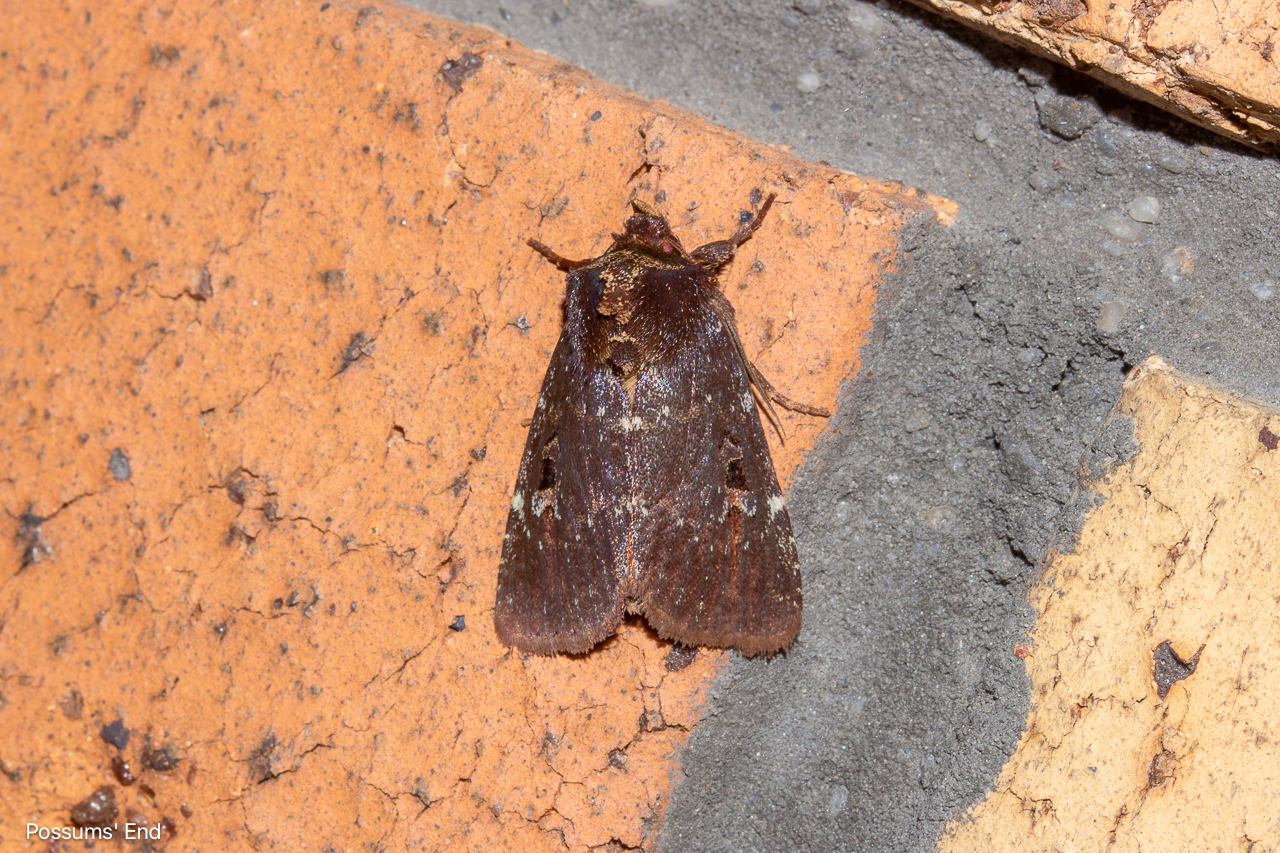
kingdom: Animalia
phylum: Arthropoda
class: Insecta
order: Lepidoptera
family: Noctuidae
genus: Austramathes
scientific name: Austramathes purpurea
